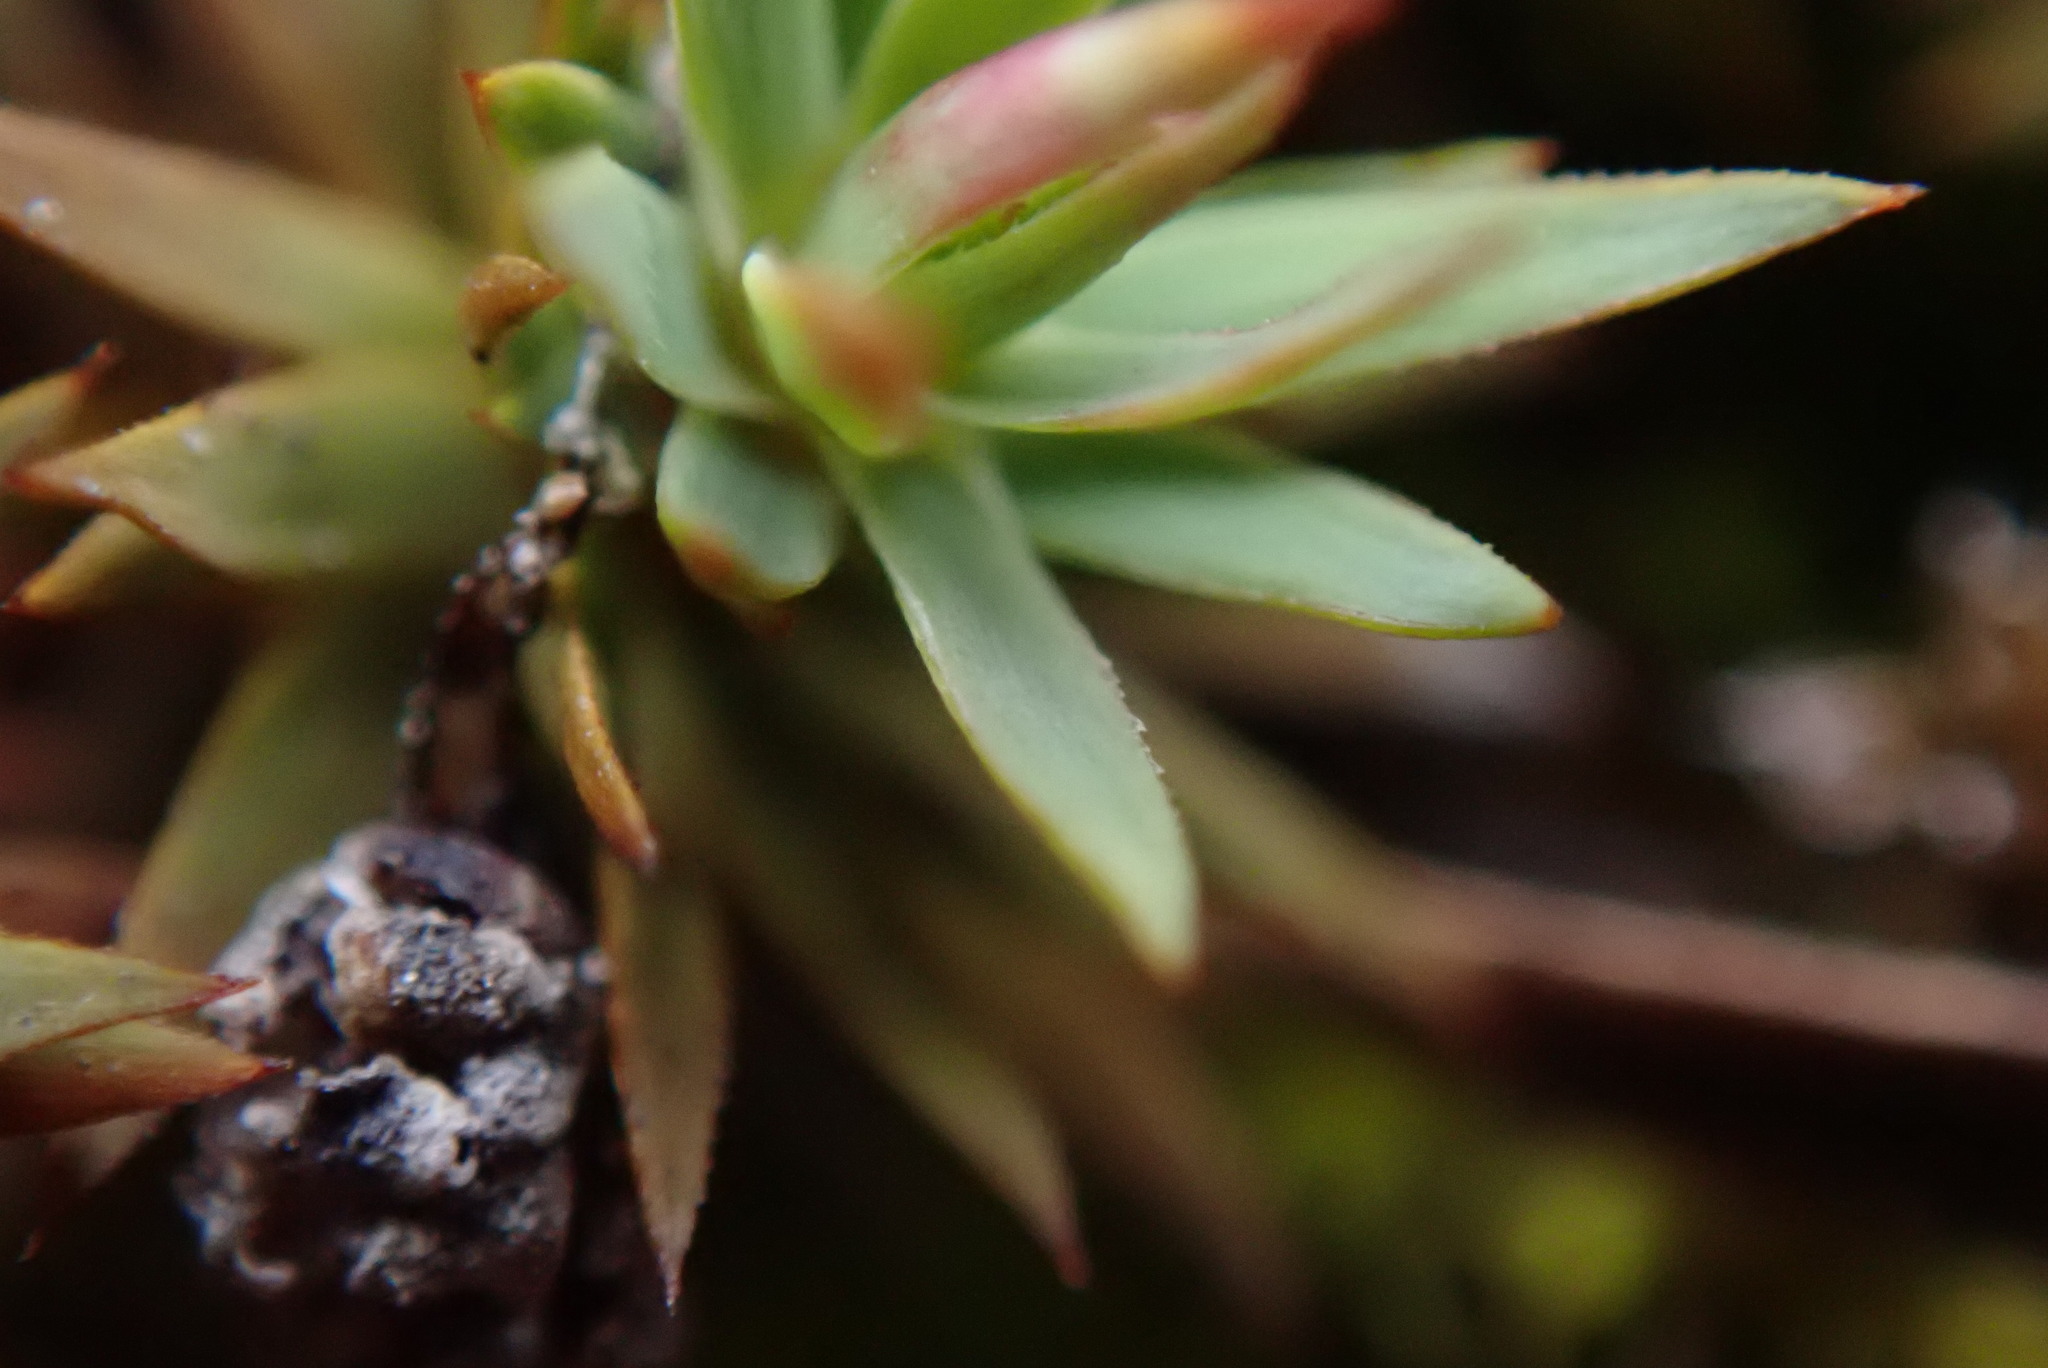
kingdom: Plantae
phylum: Bryophyta
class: Polytrichopsida
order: Polytrichales
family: Polytrichaceae
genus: Pogonatum
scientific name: Pogonatum urnigerum
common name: Urn hair moss
